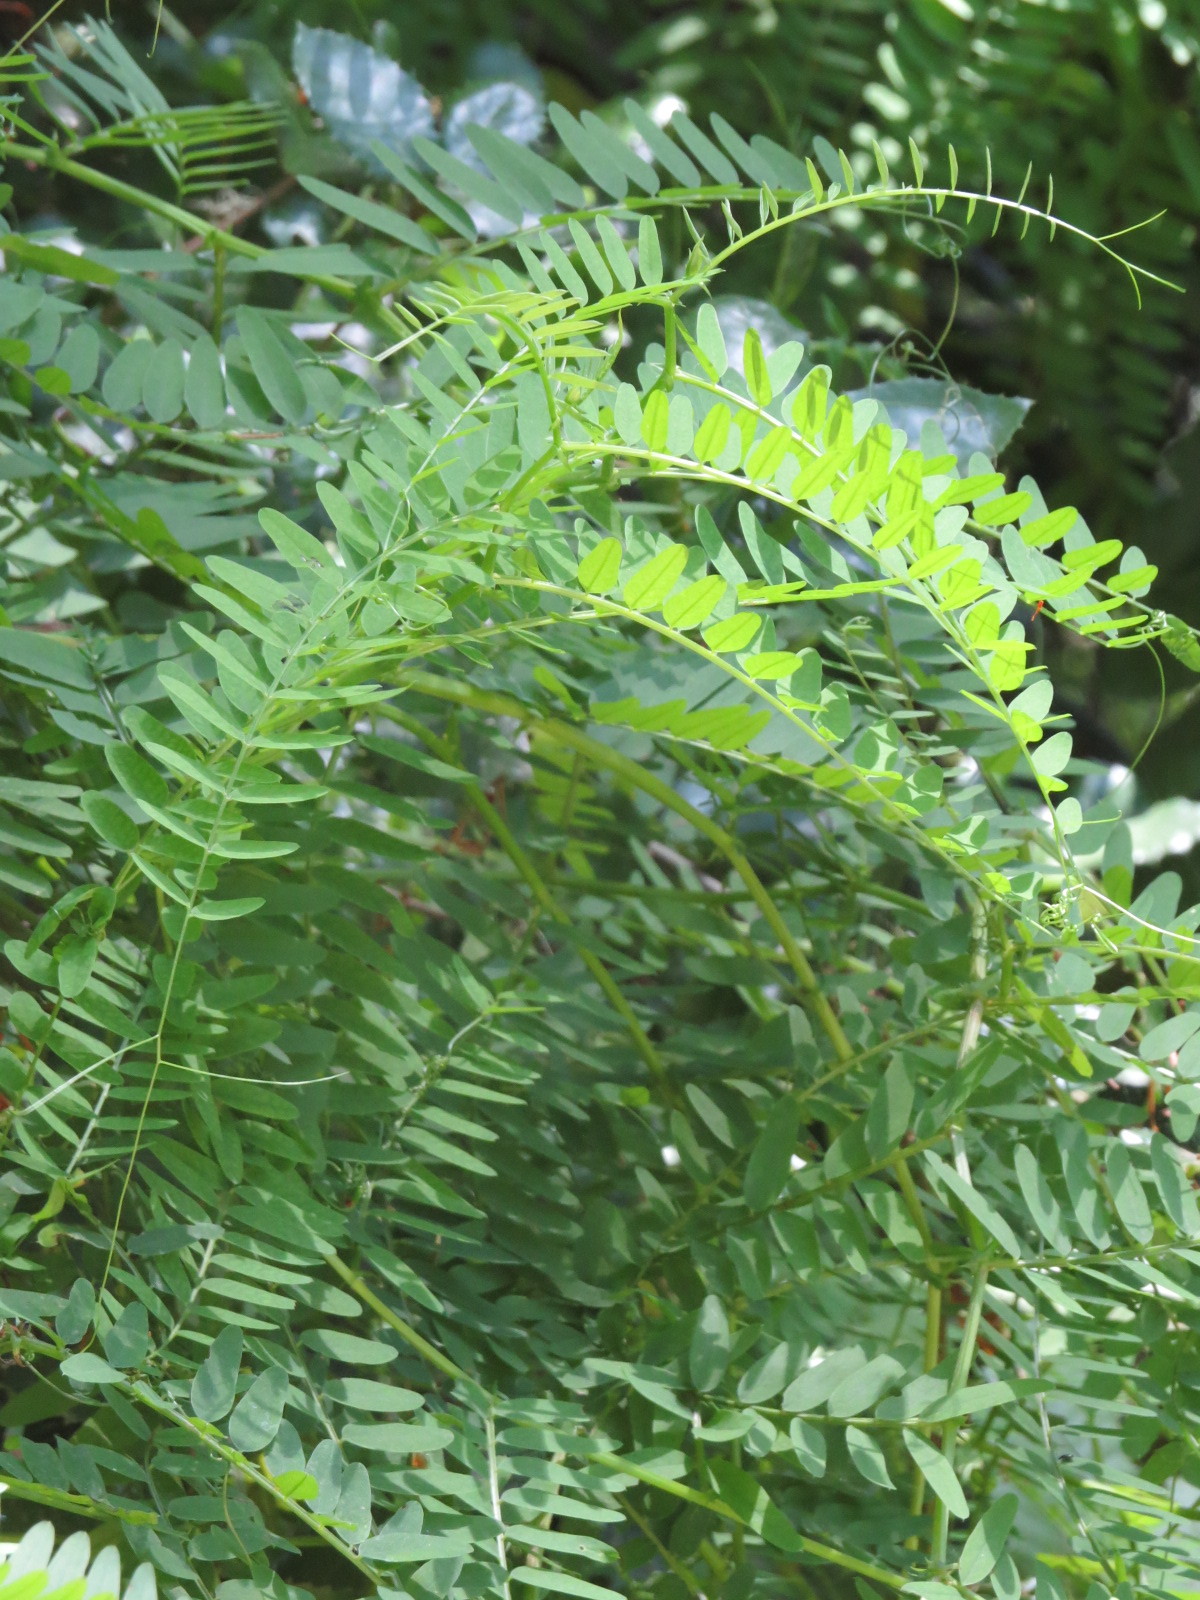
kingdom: Plantae
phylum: Tracheophyta
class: Magnoliopsida
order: Fabales
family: Fabaceae
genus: Vicia
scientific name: Vicia
